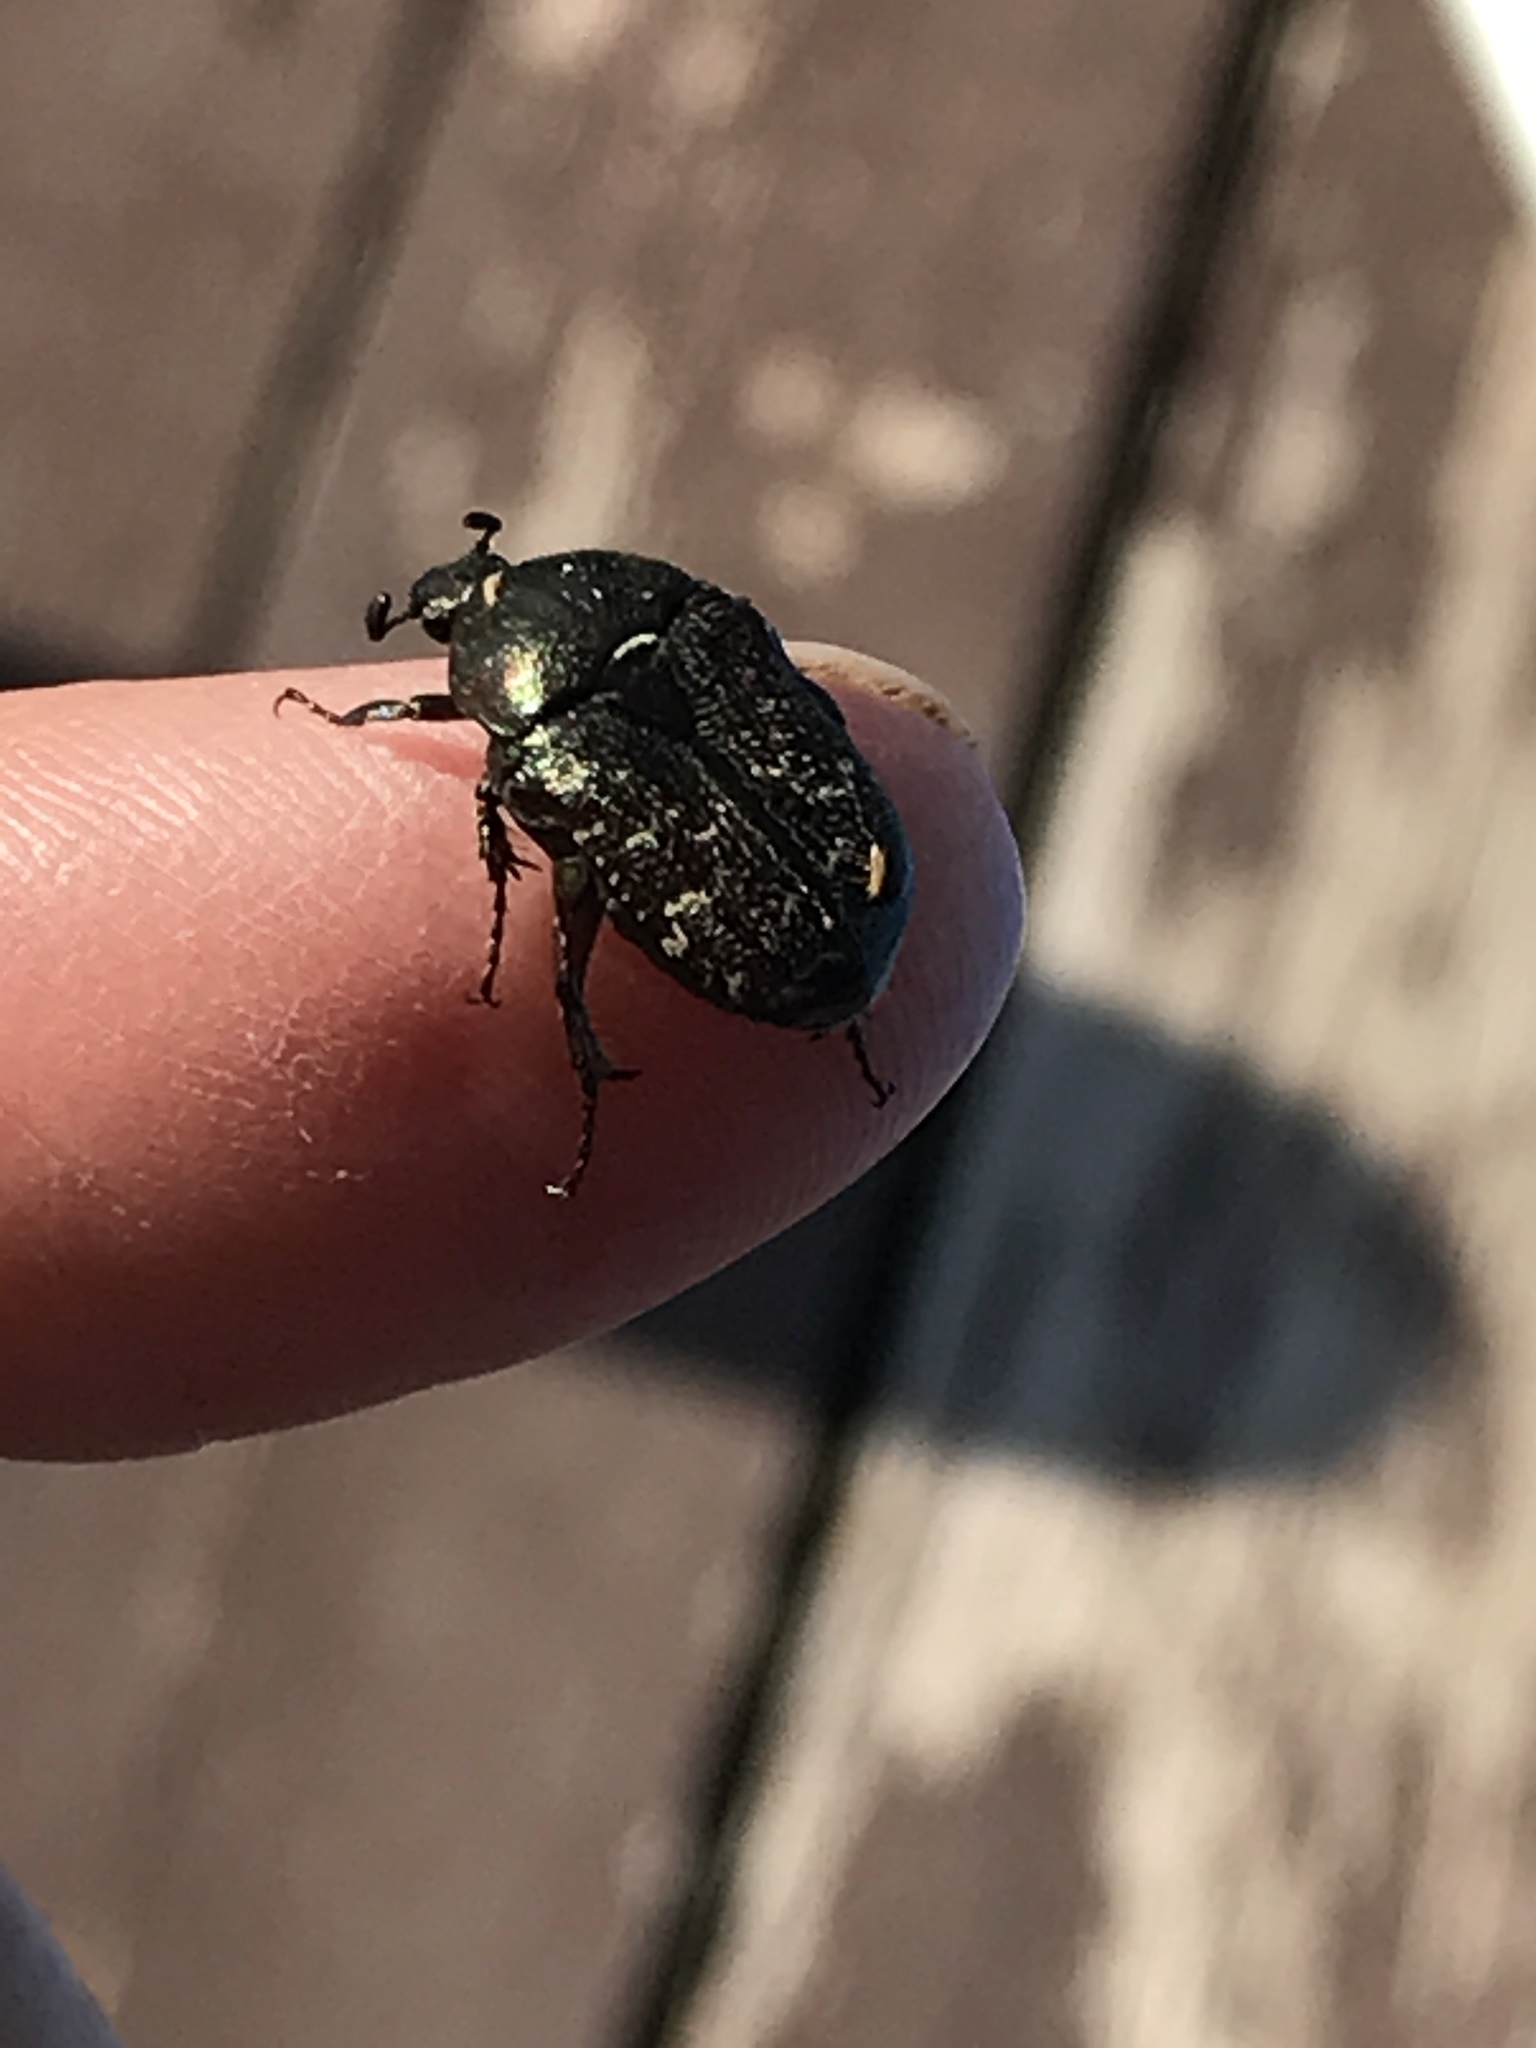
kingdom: Animalia
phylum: Arthropoda
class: Insecta
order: Coleoptera
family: Scarabaeidae
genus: Euphoria
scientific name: Euphoria sepulcralis
